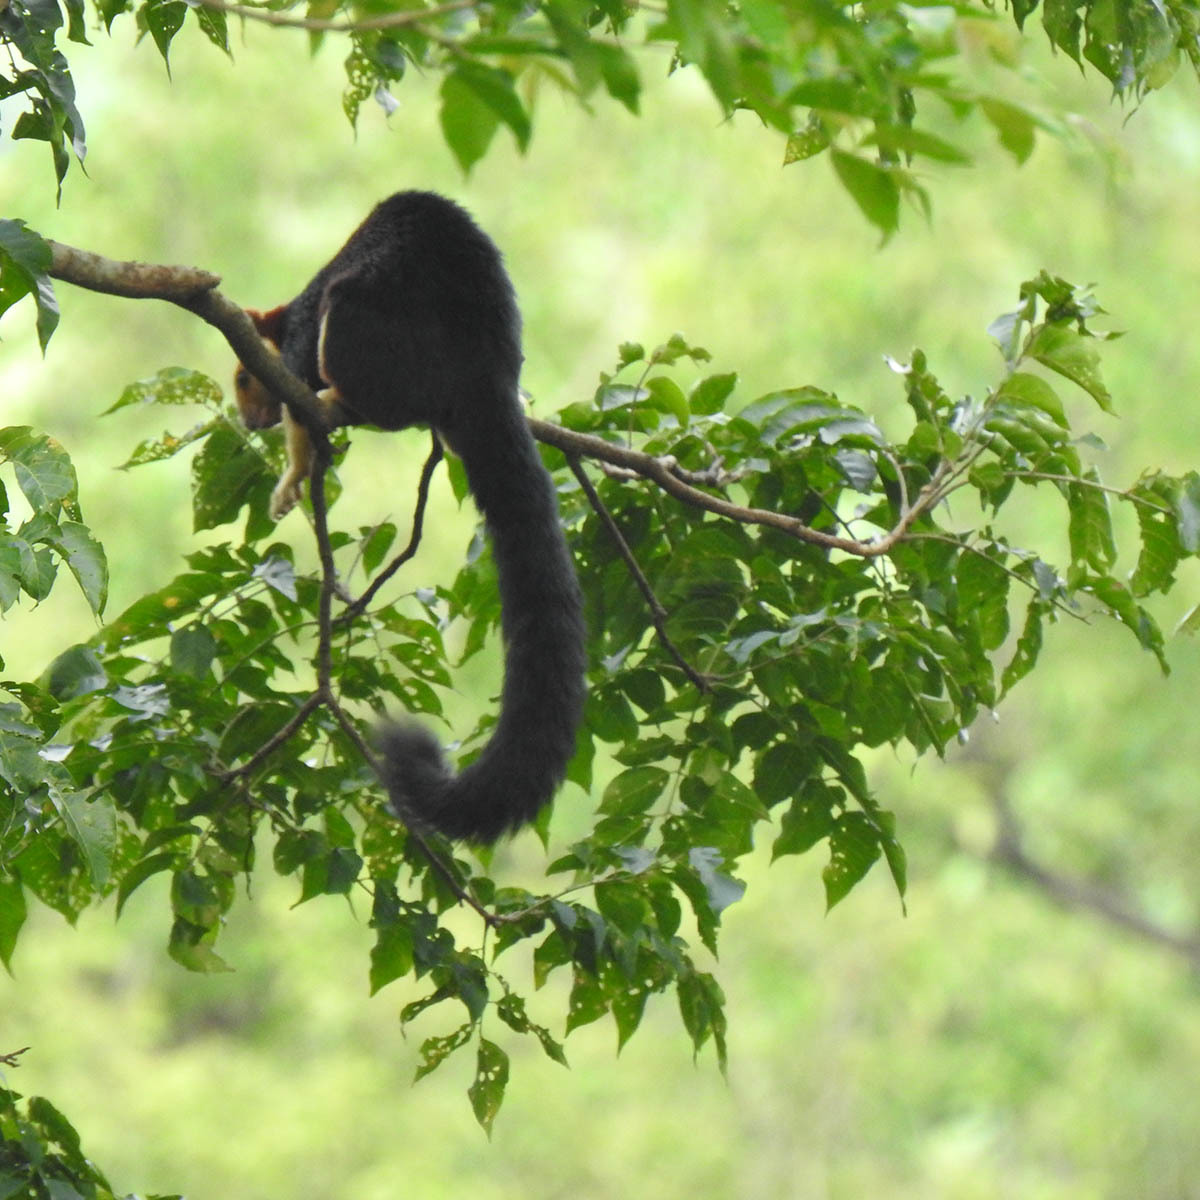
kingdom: Animalia
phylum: Chordata
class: Mammalia
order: Rodentia
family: Sciuridae
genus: Ratufa
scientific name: Ratufa indica
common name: Indian giant squirrel
